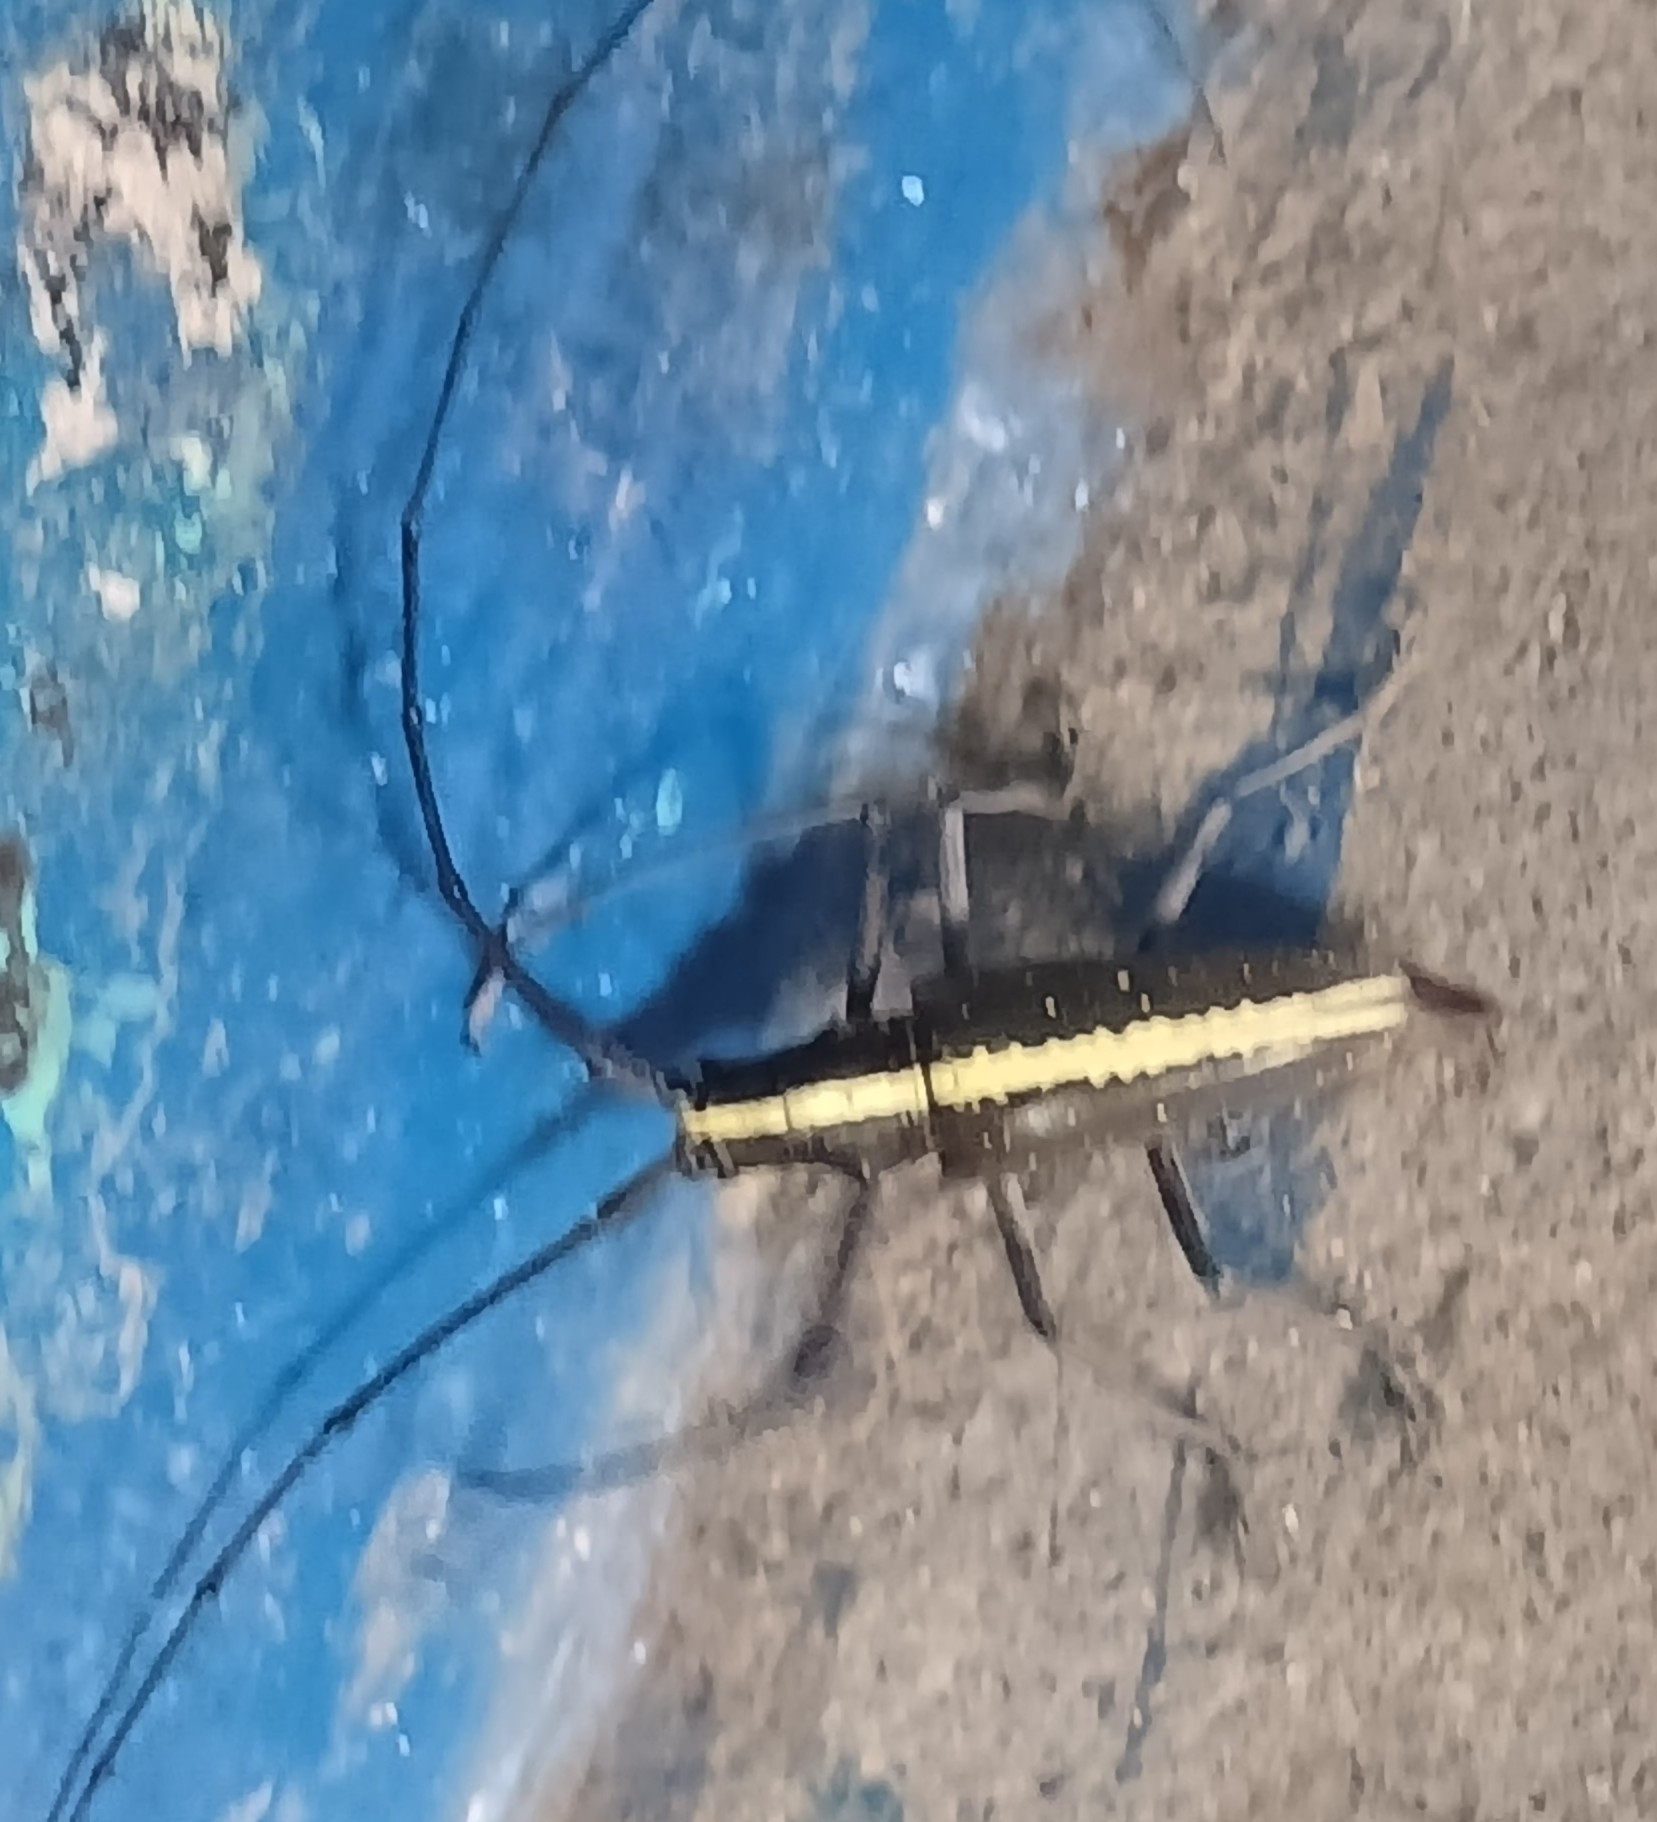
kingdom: Animalia
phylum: Arthropoda
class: Insecta
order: Coleoptera
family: Cerambycidae
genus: Taeniotes
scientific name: Taeniotes scalatus
